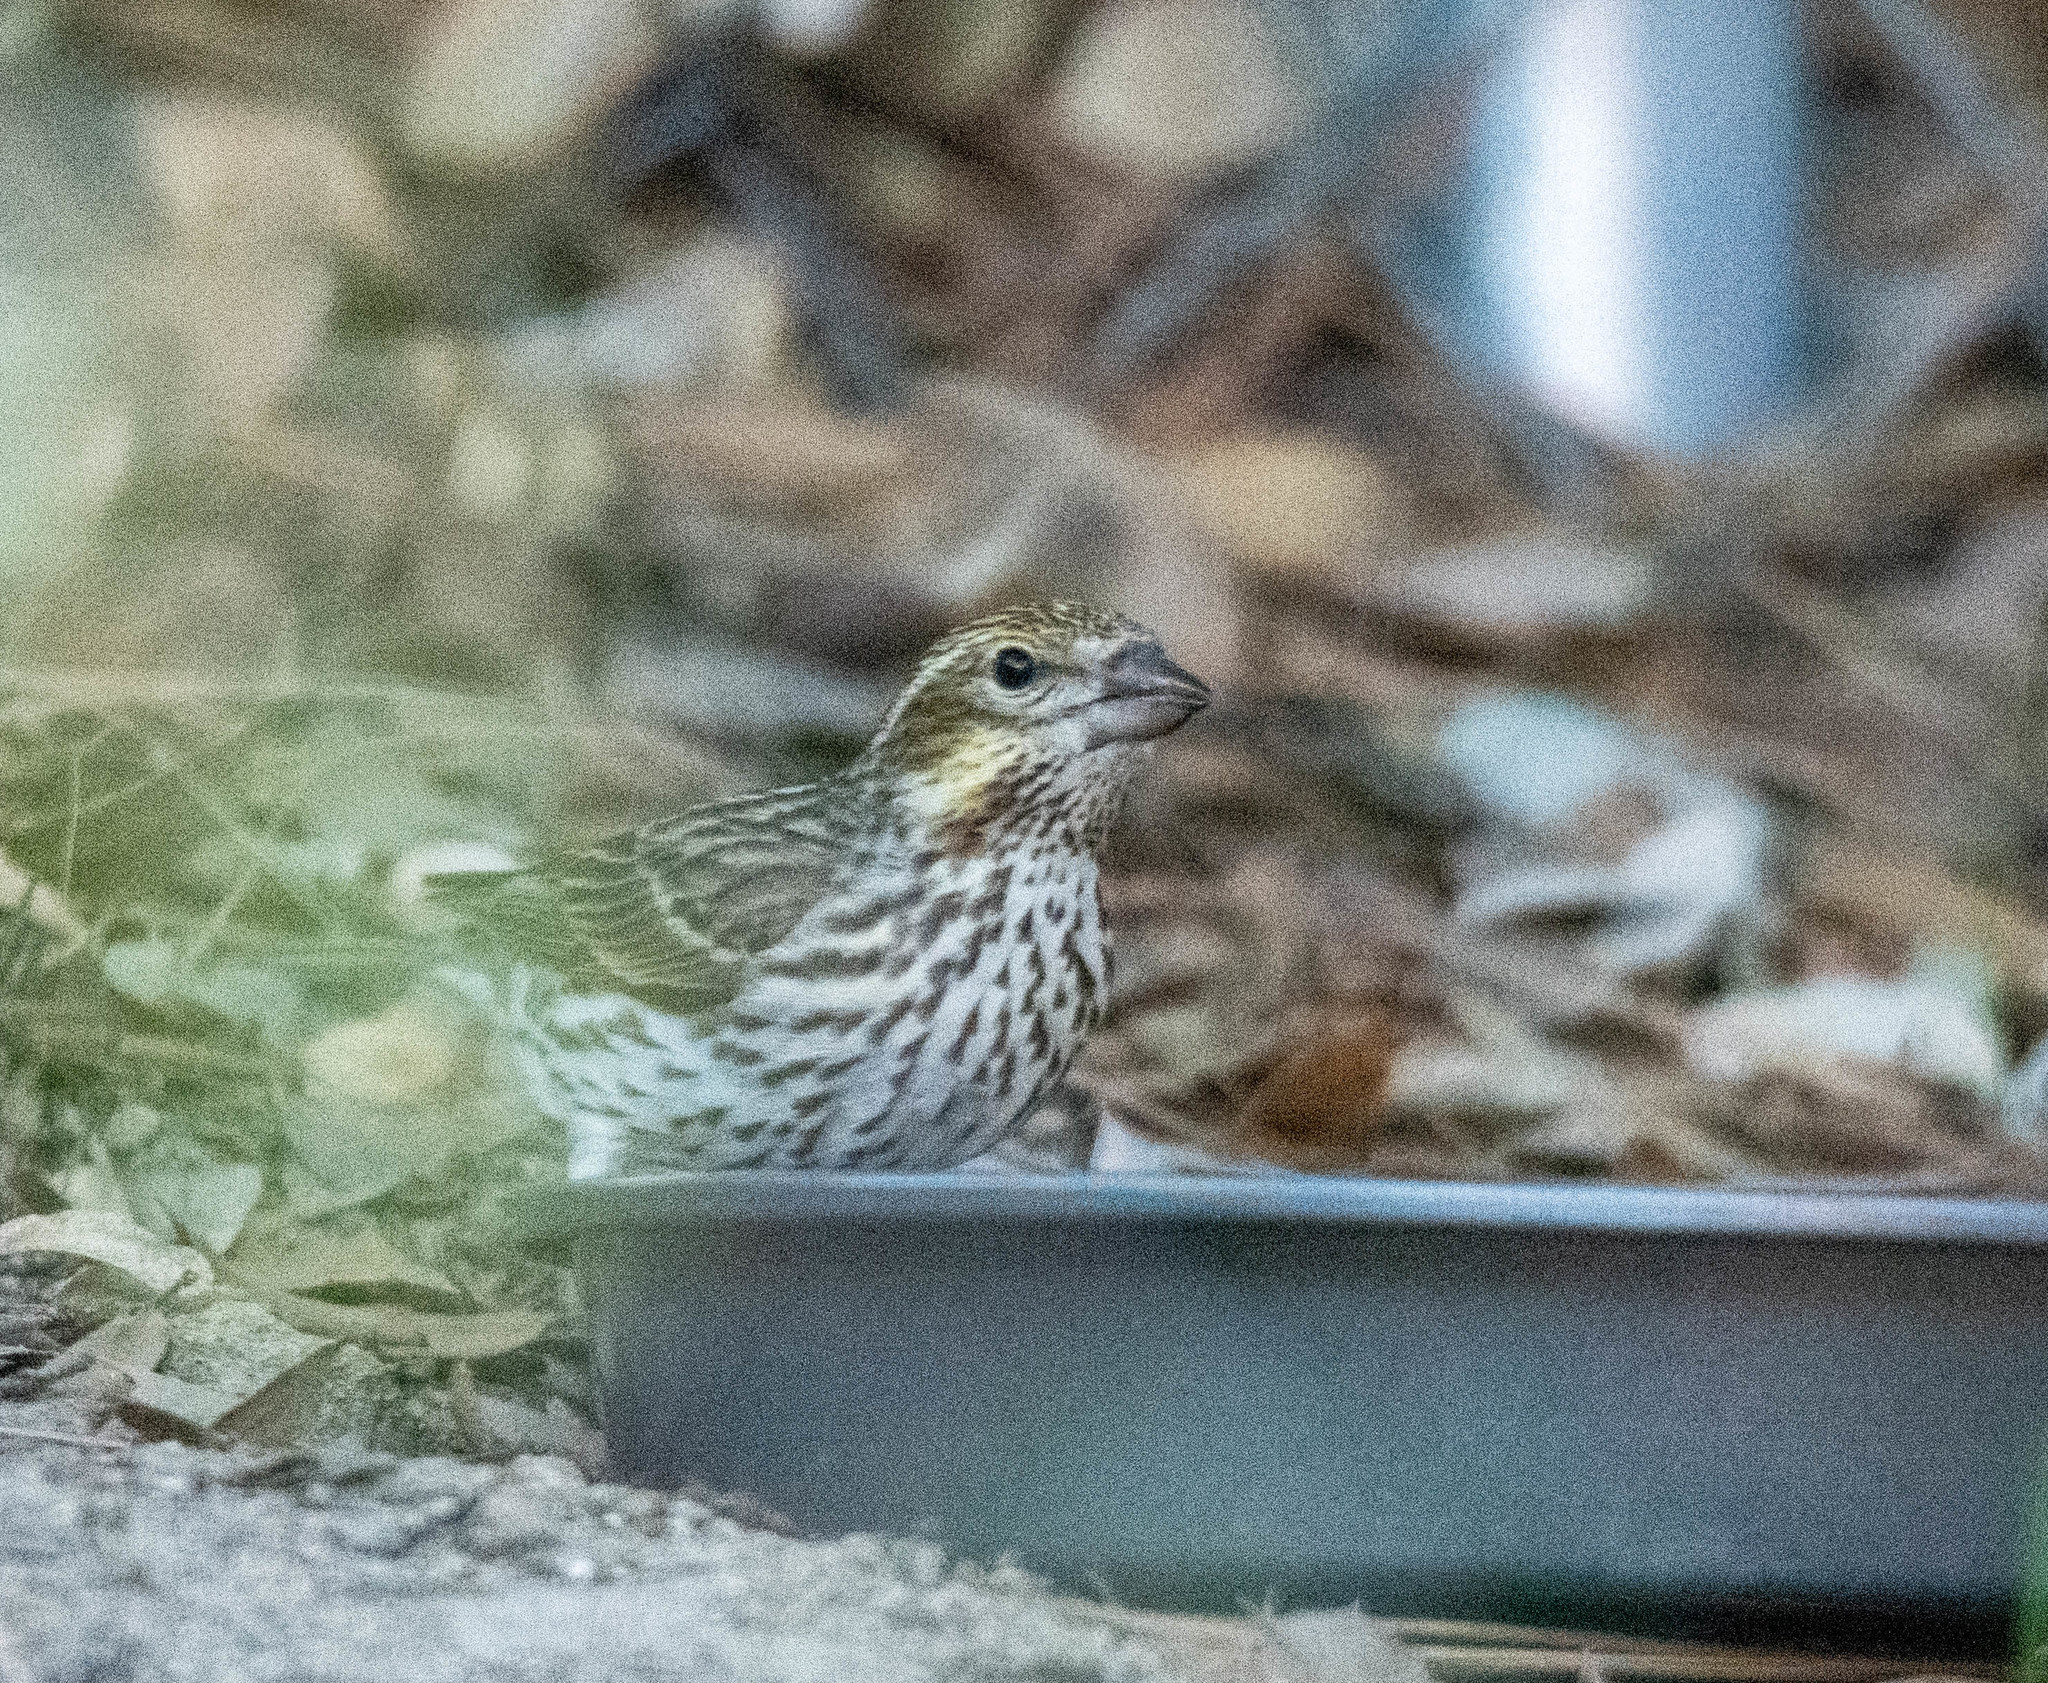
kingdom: Animalia
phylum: Chordata
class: Aves
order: Passeriformes
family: Fringillidae
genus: Haemorhous
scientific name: Haemorhous cassinii
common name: Cassin's finch
